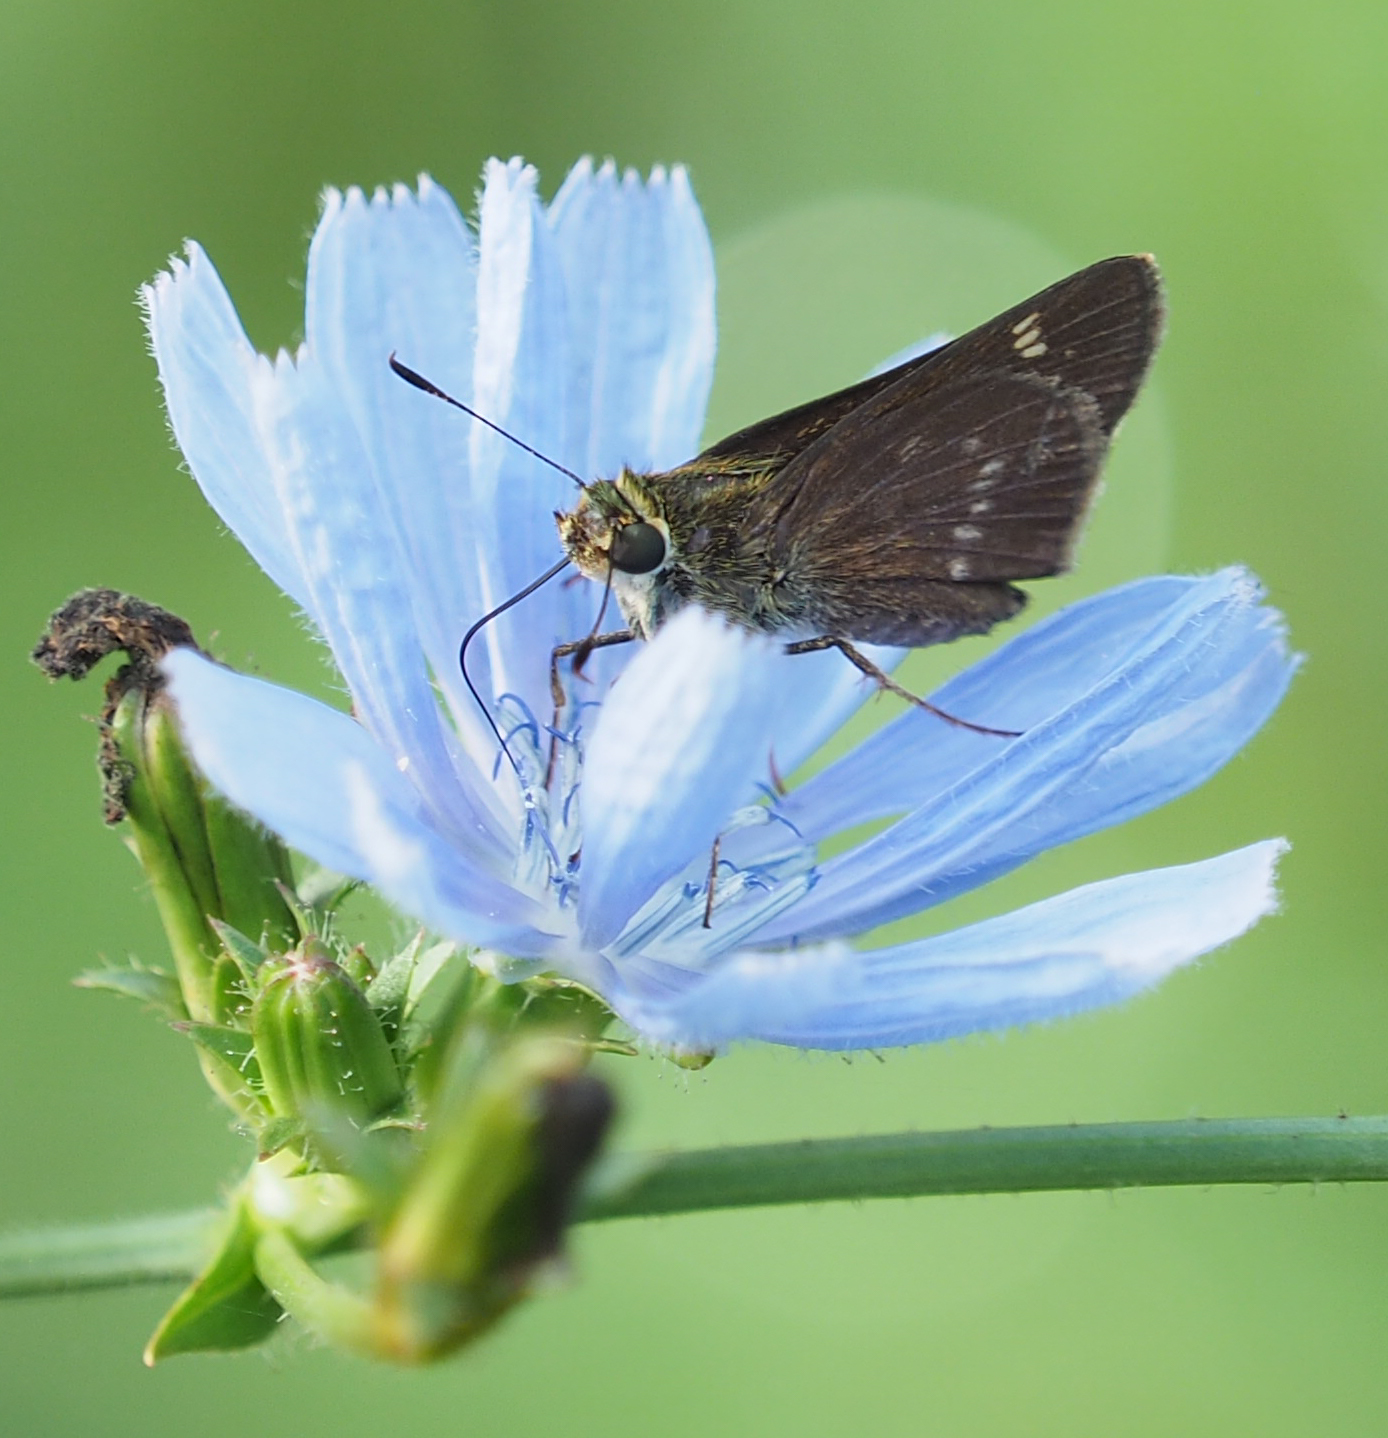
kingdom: Animalia
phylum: Arthropoda
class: Insecta
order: Lepidoptera
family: Hesperiidae
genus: Vernia
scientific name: Vernia verna
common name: Little glassywing
